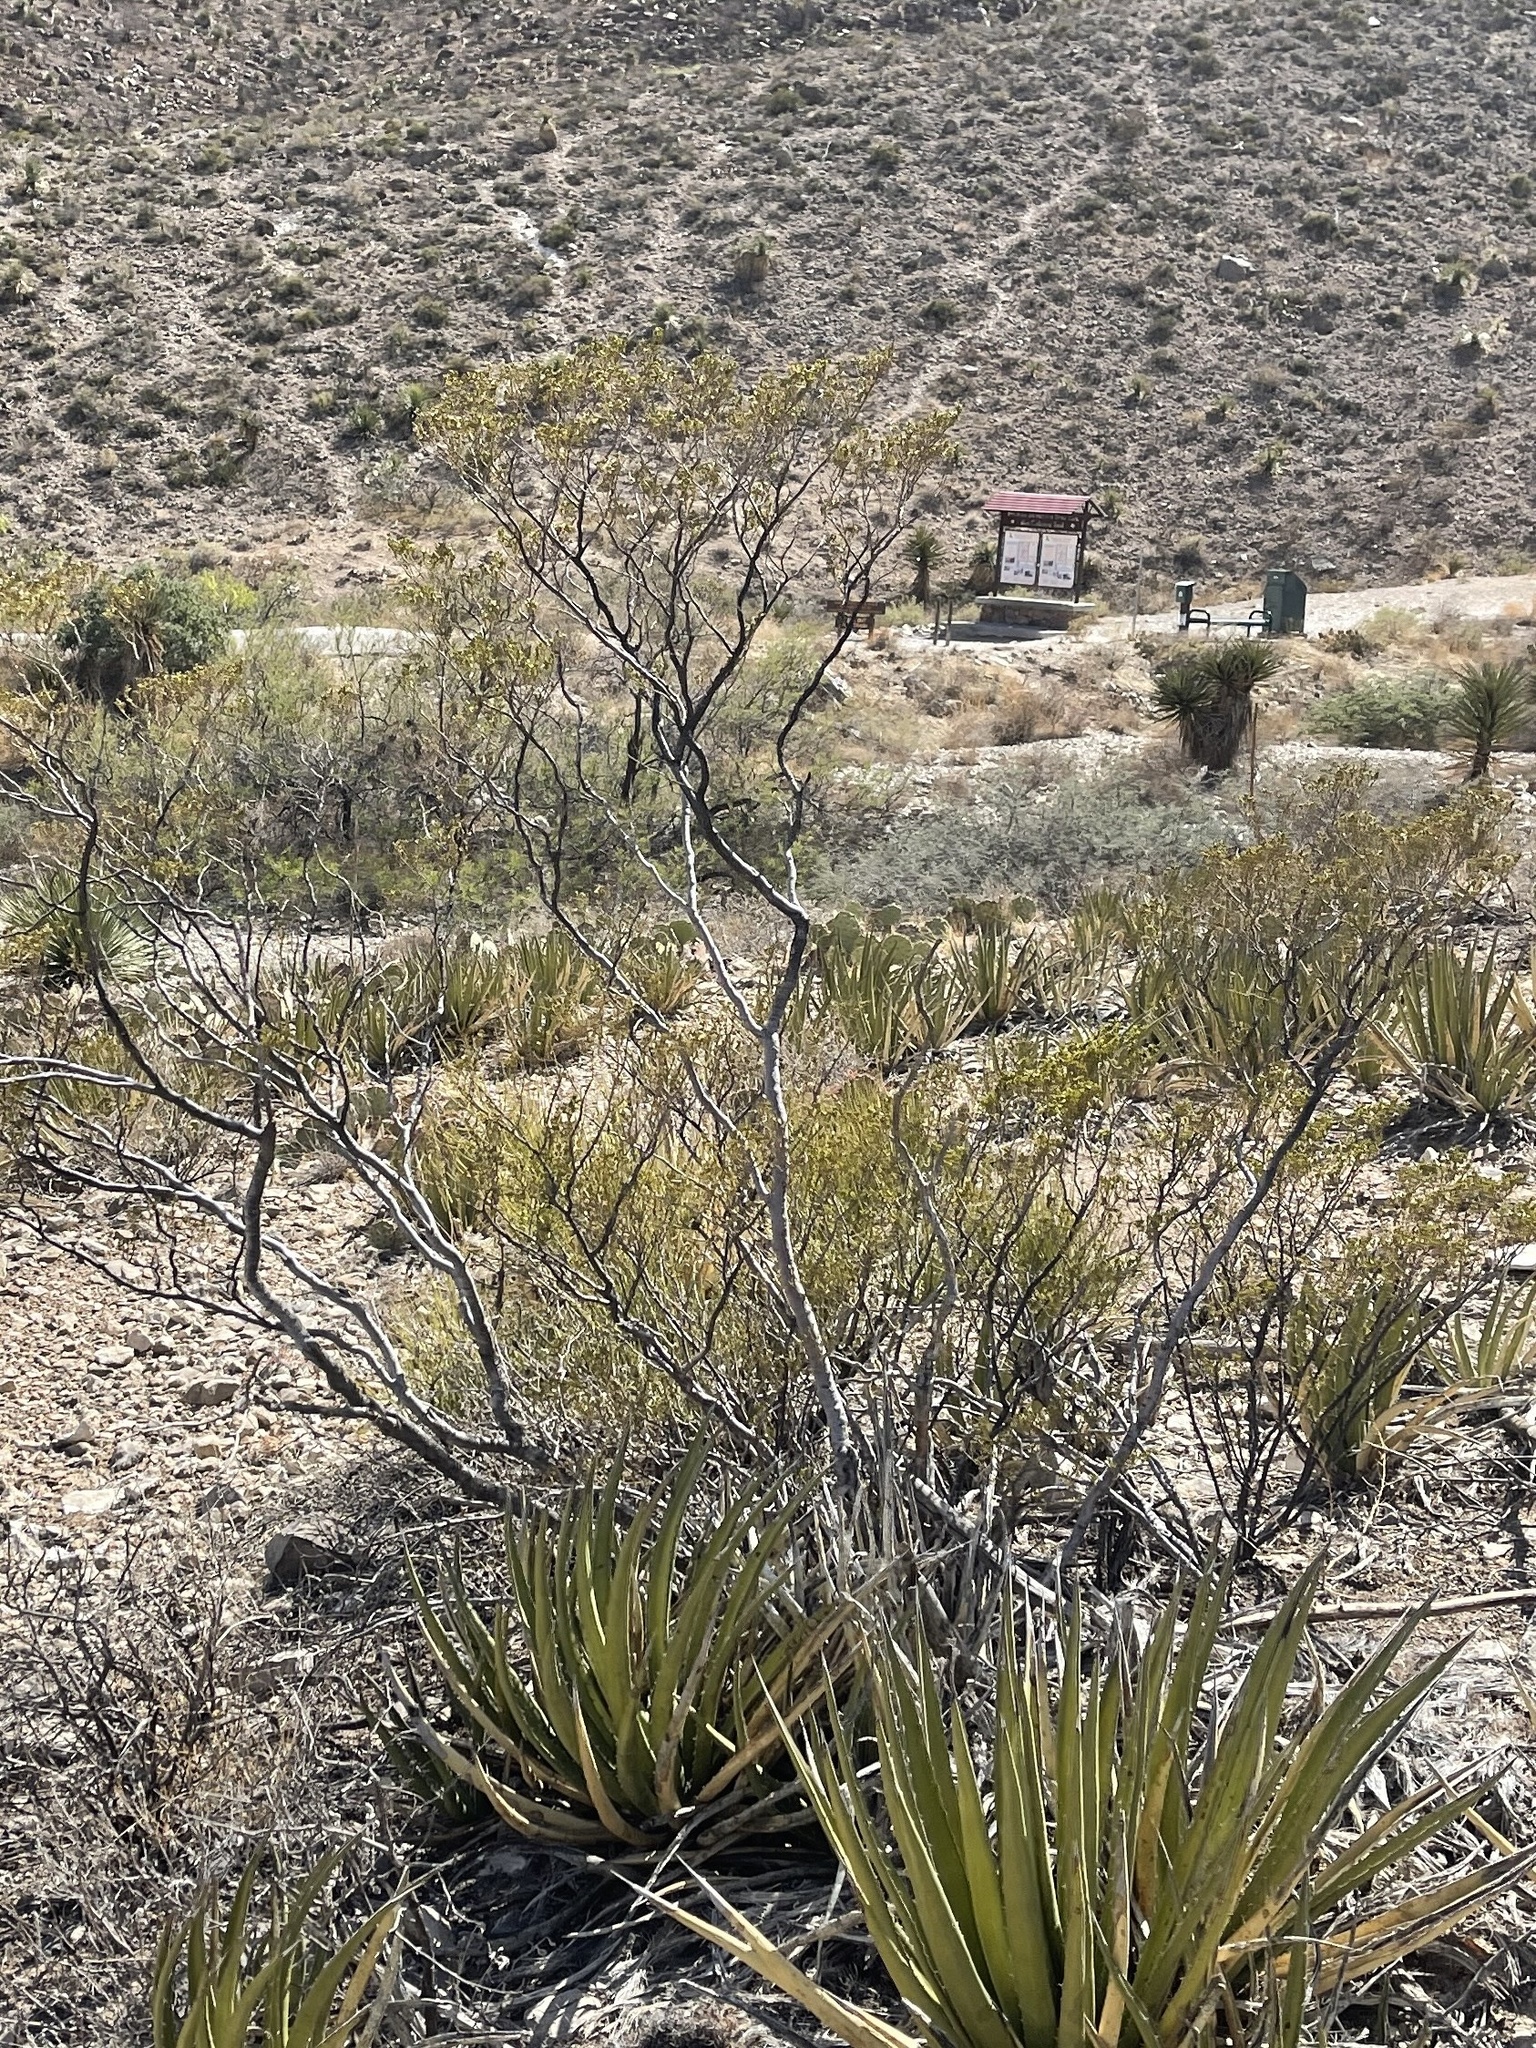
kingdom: Plantae
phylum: Tracheophyta
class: Magnoliopsida
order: Zygophyllales
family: Zygophyllaceae
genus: Larrea
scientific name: Larrea tridentata
